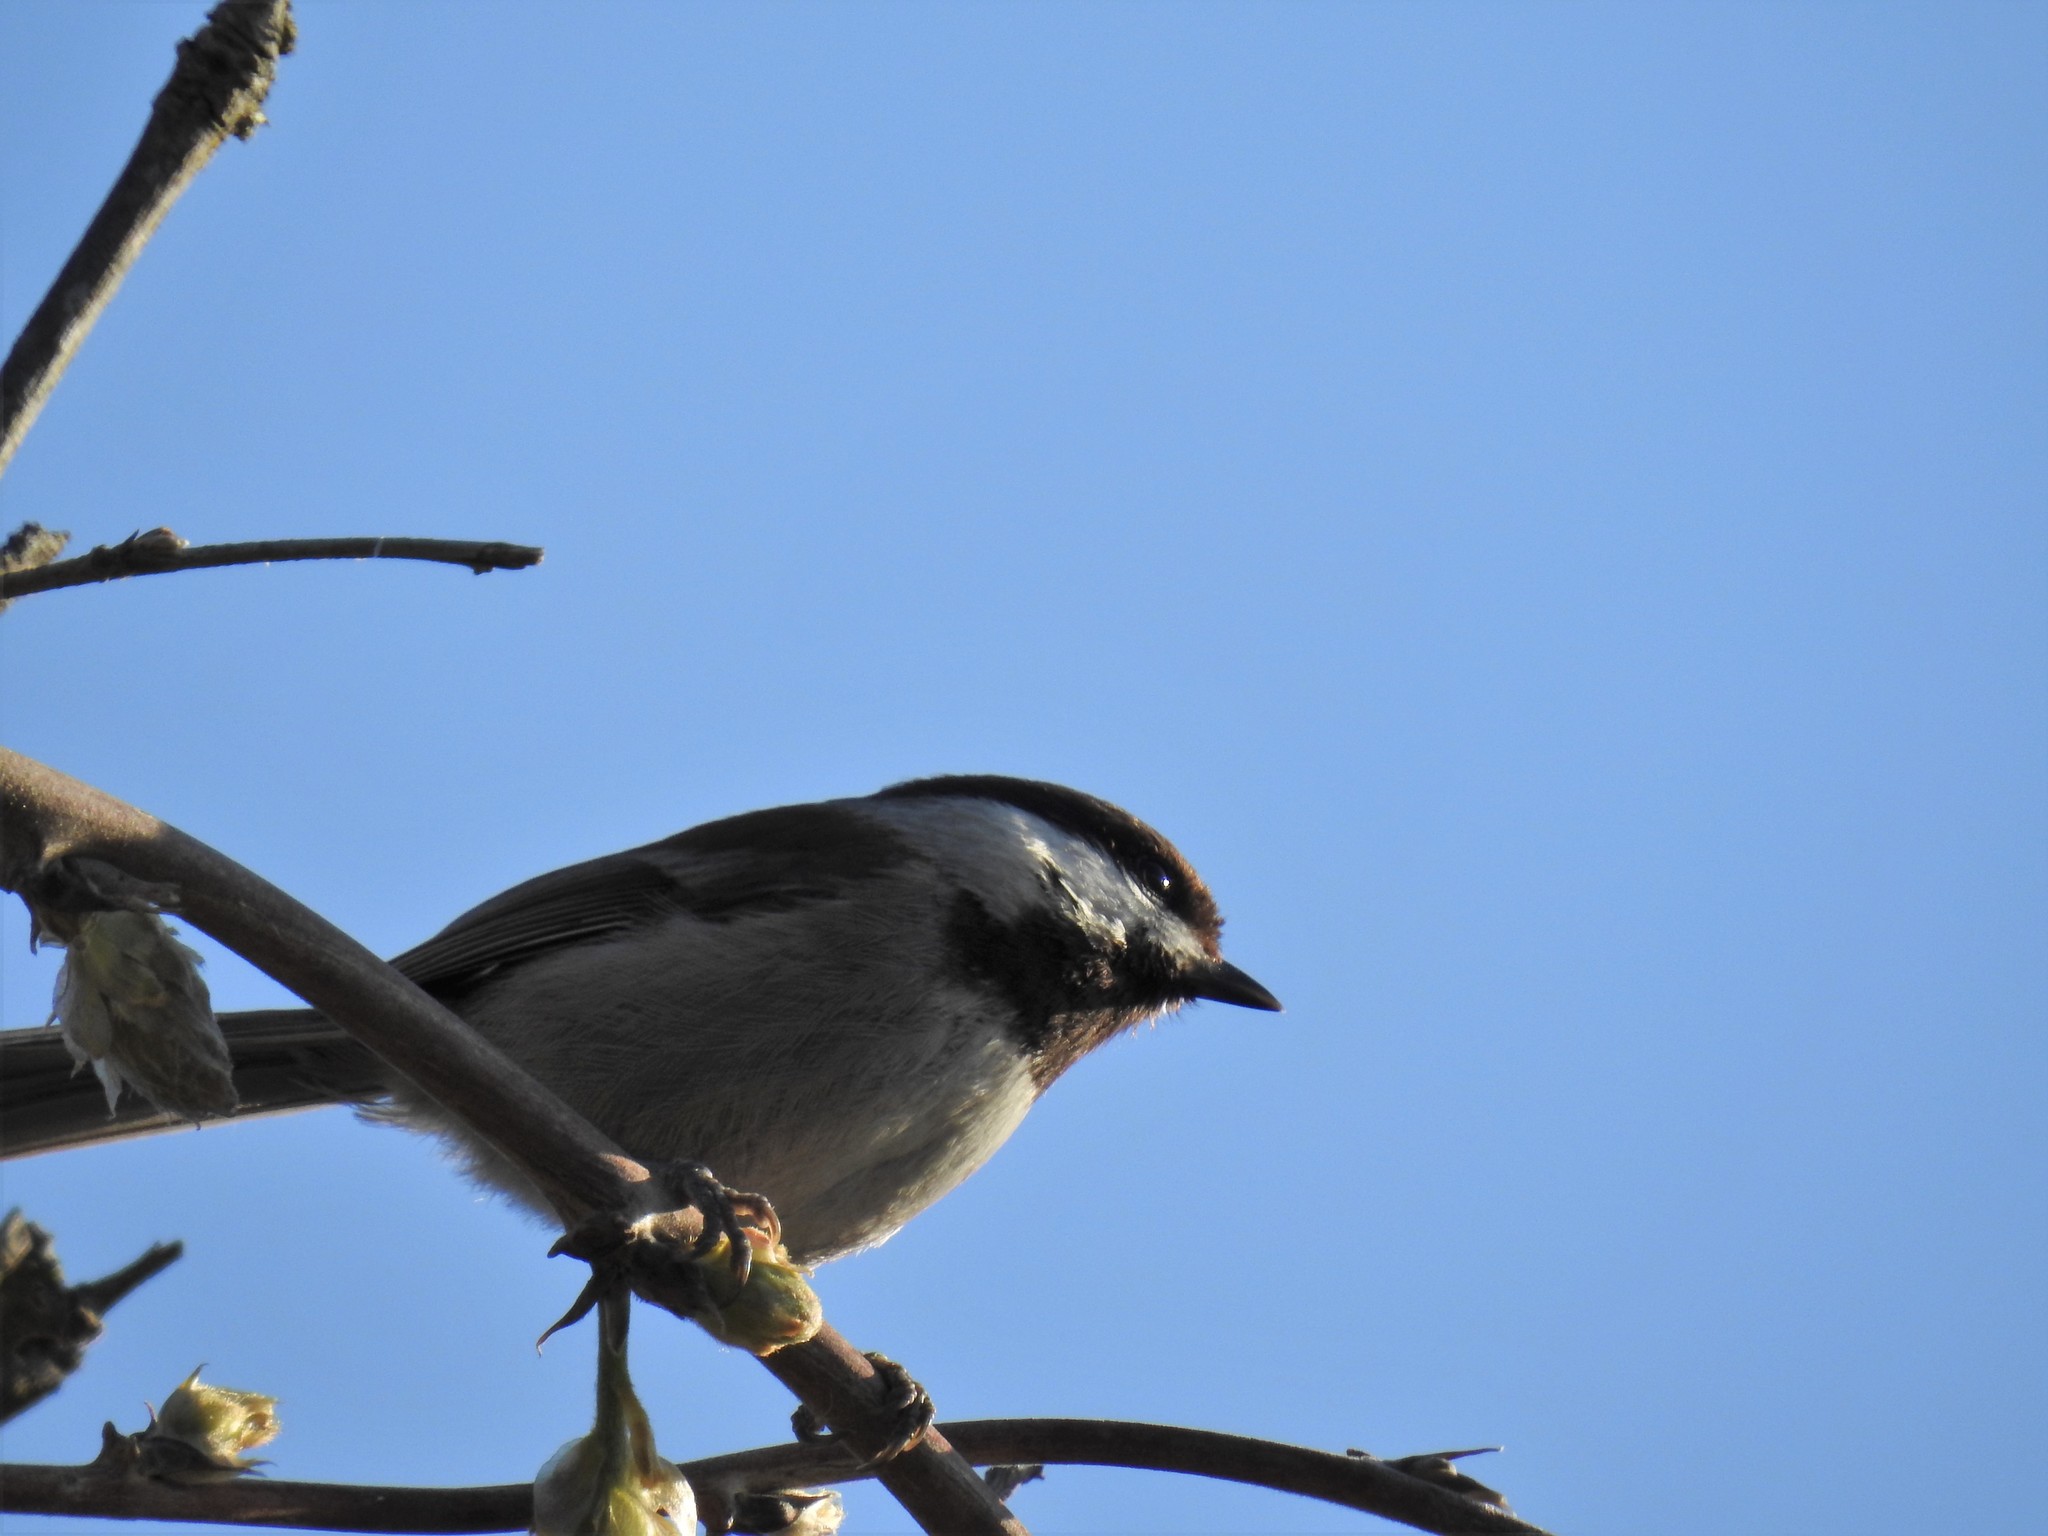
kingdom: Animalia
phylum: Chordata
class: Aves
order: Passeriformes
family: Paridae
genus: Poecile
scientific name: Poecile rufescens
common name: Chestnut-backed chickadee
